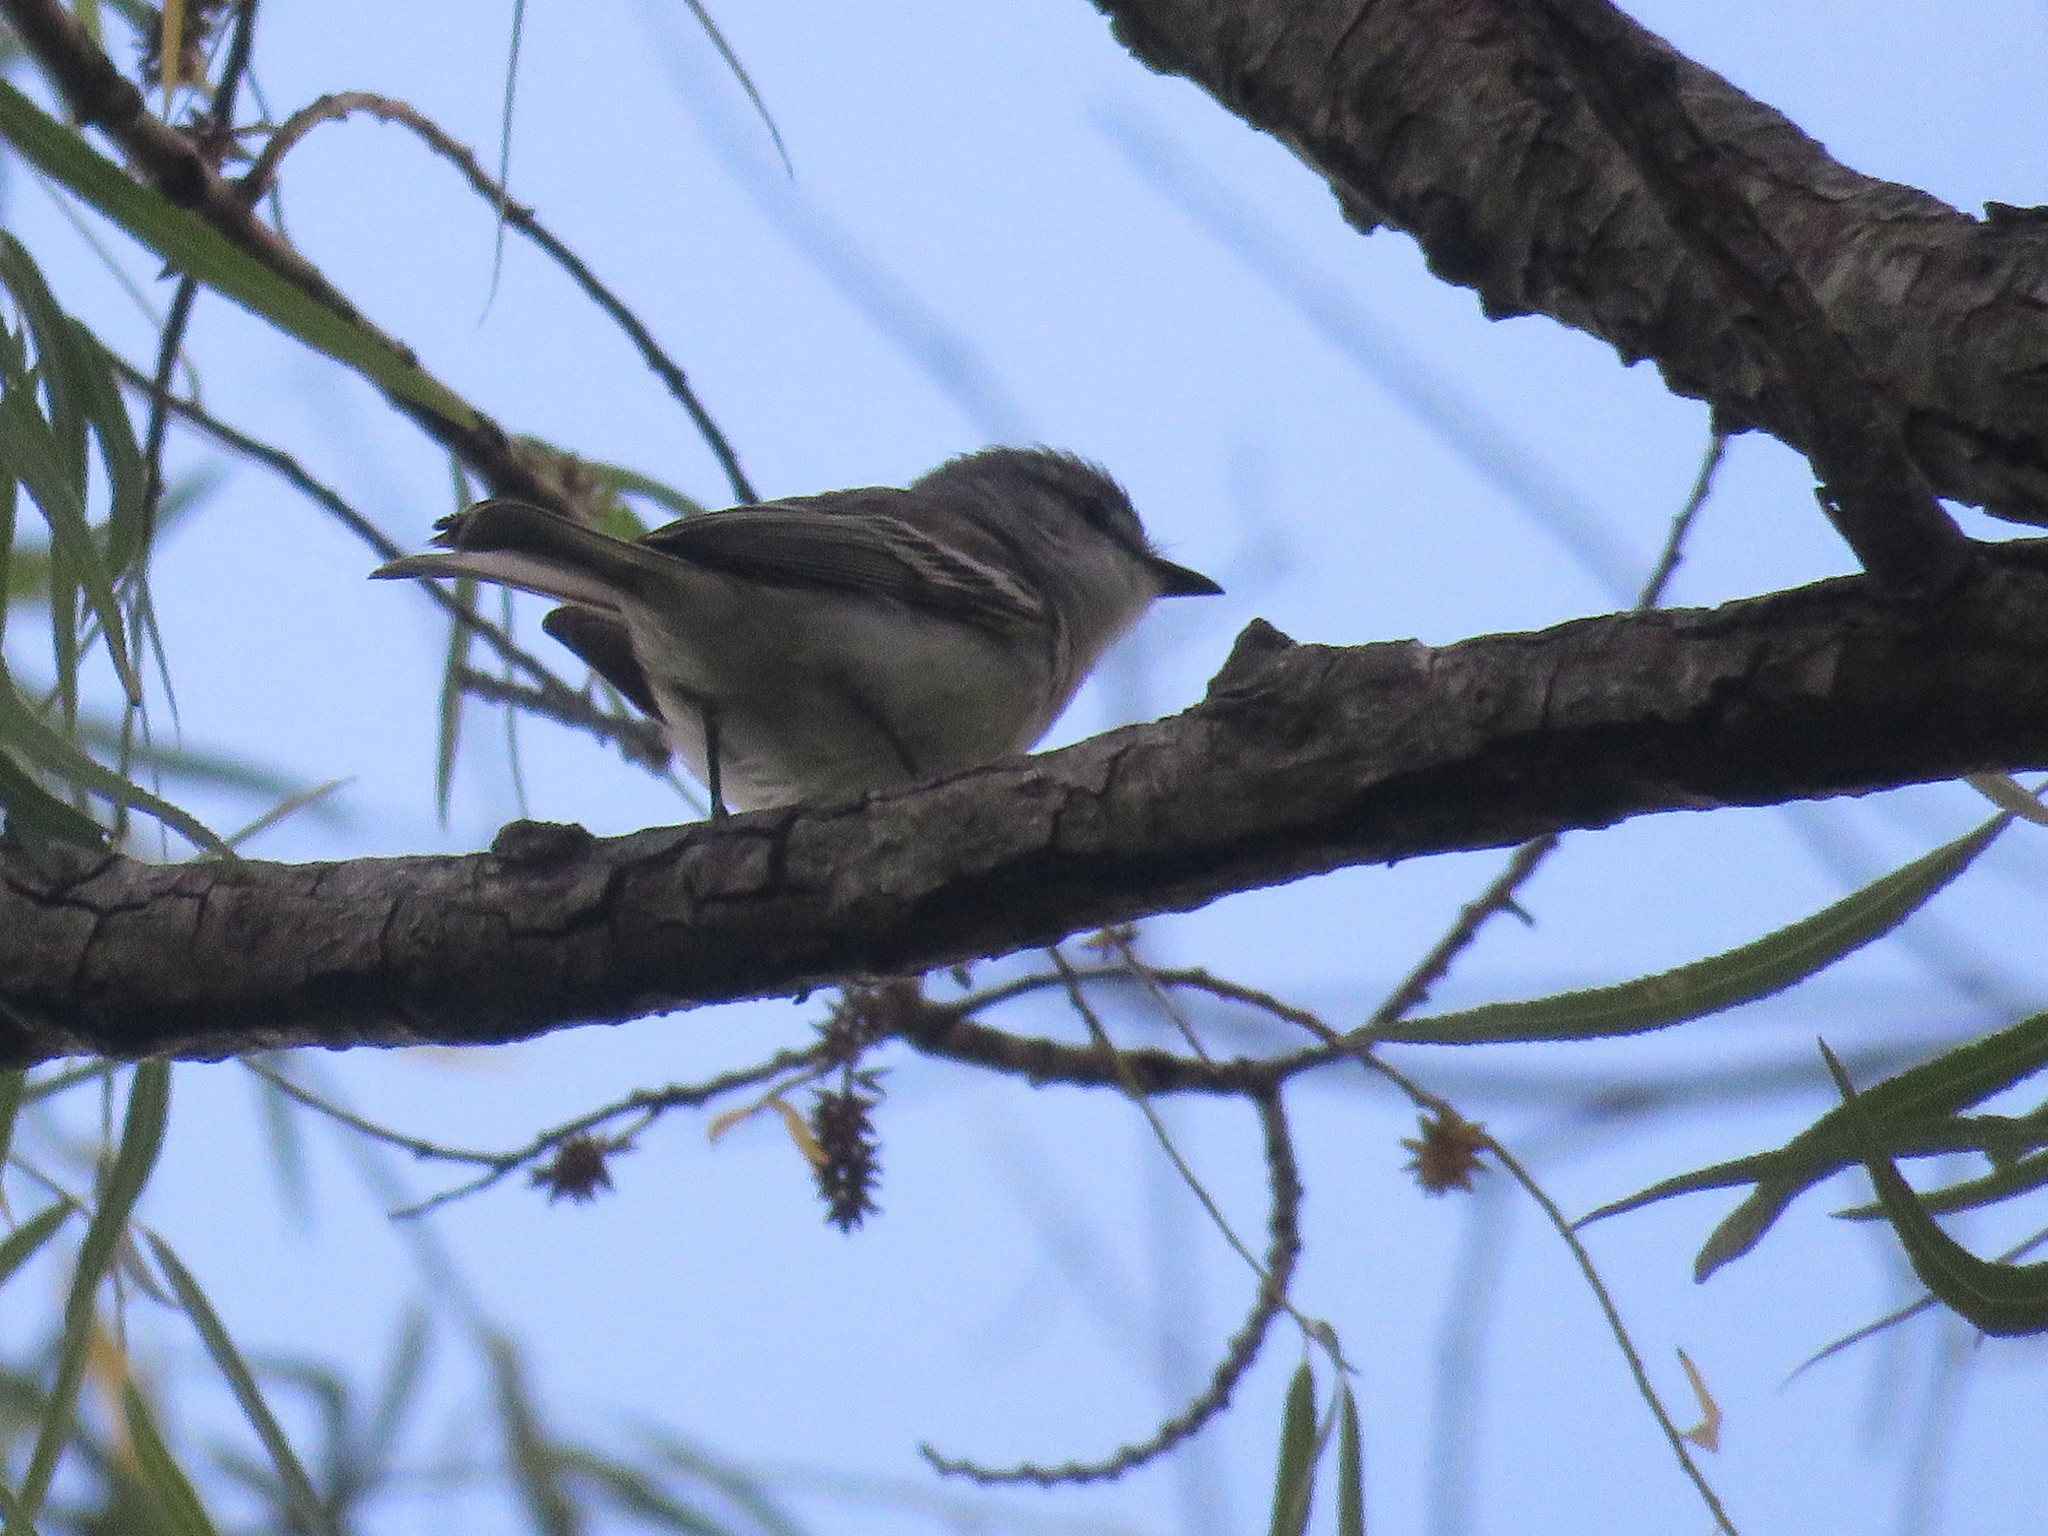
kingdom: Animalia
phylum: Chordata
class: Aves
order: Passeriformes
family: Tyrannidae
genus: Suiriri
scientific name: Suiriri suiriri
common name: Suiriri flycatcher
